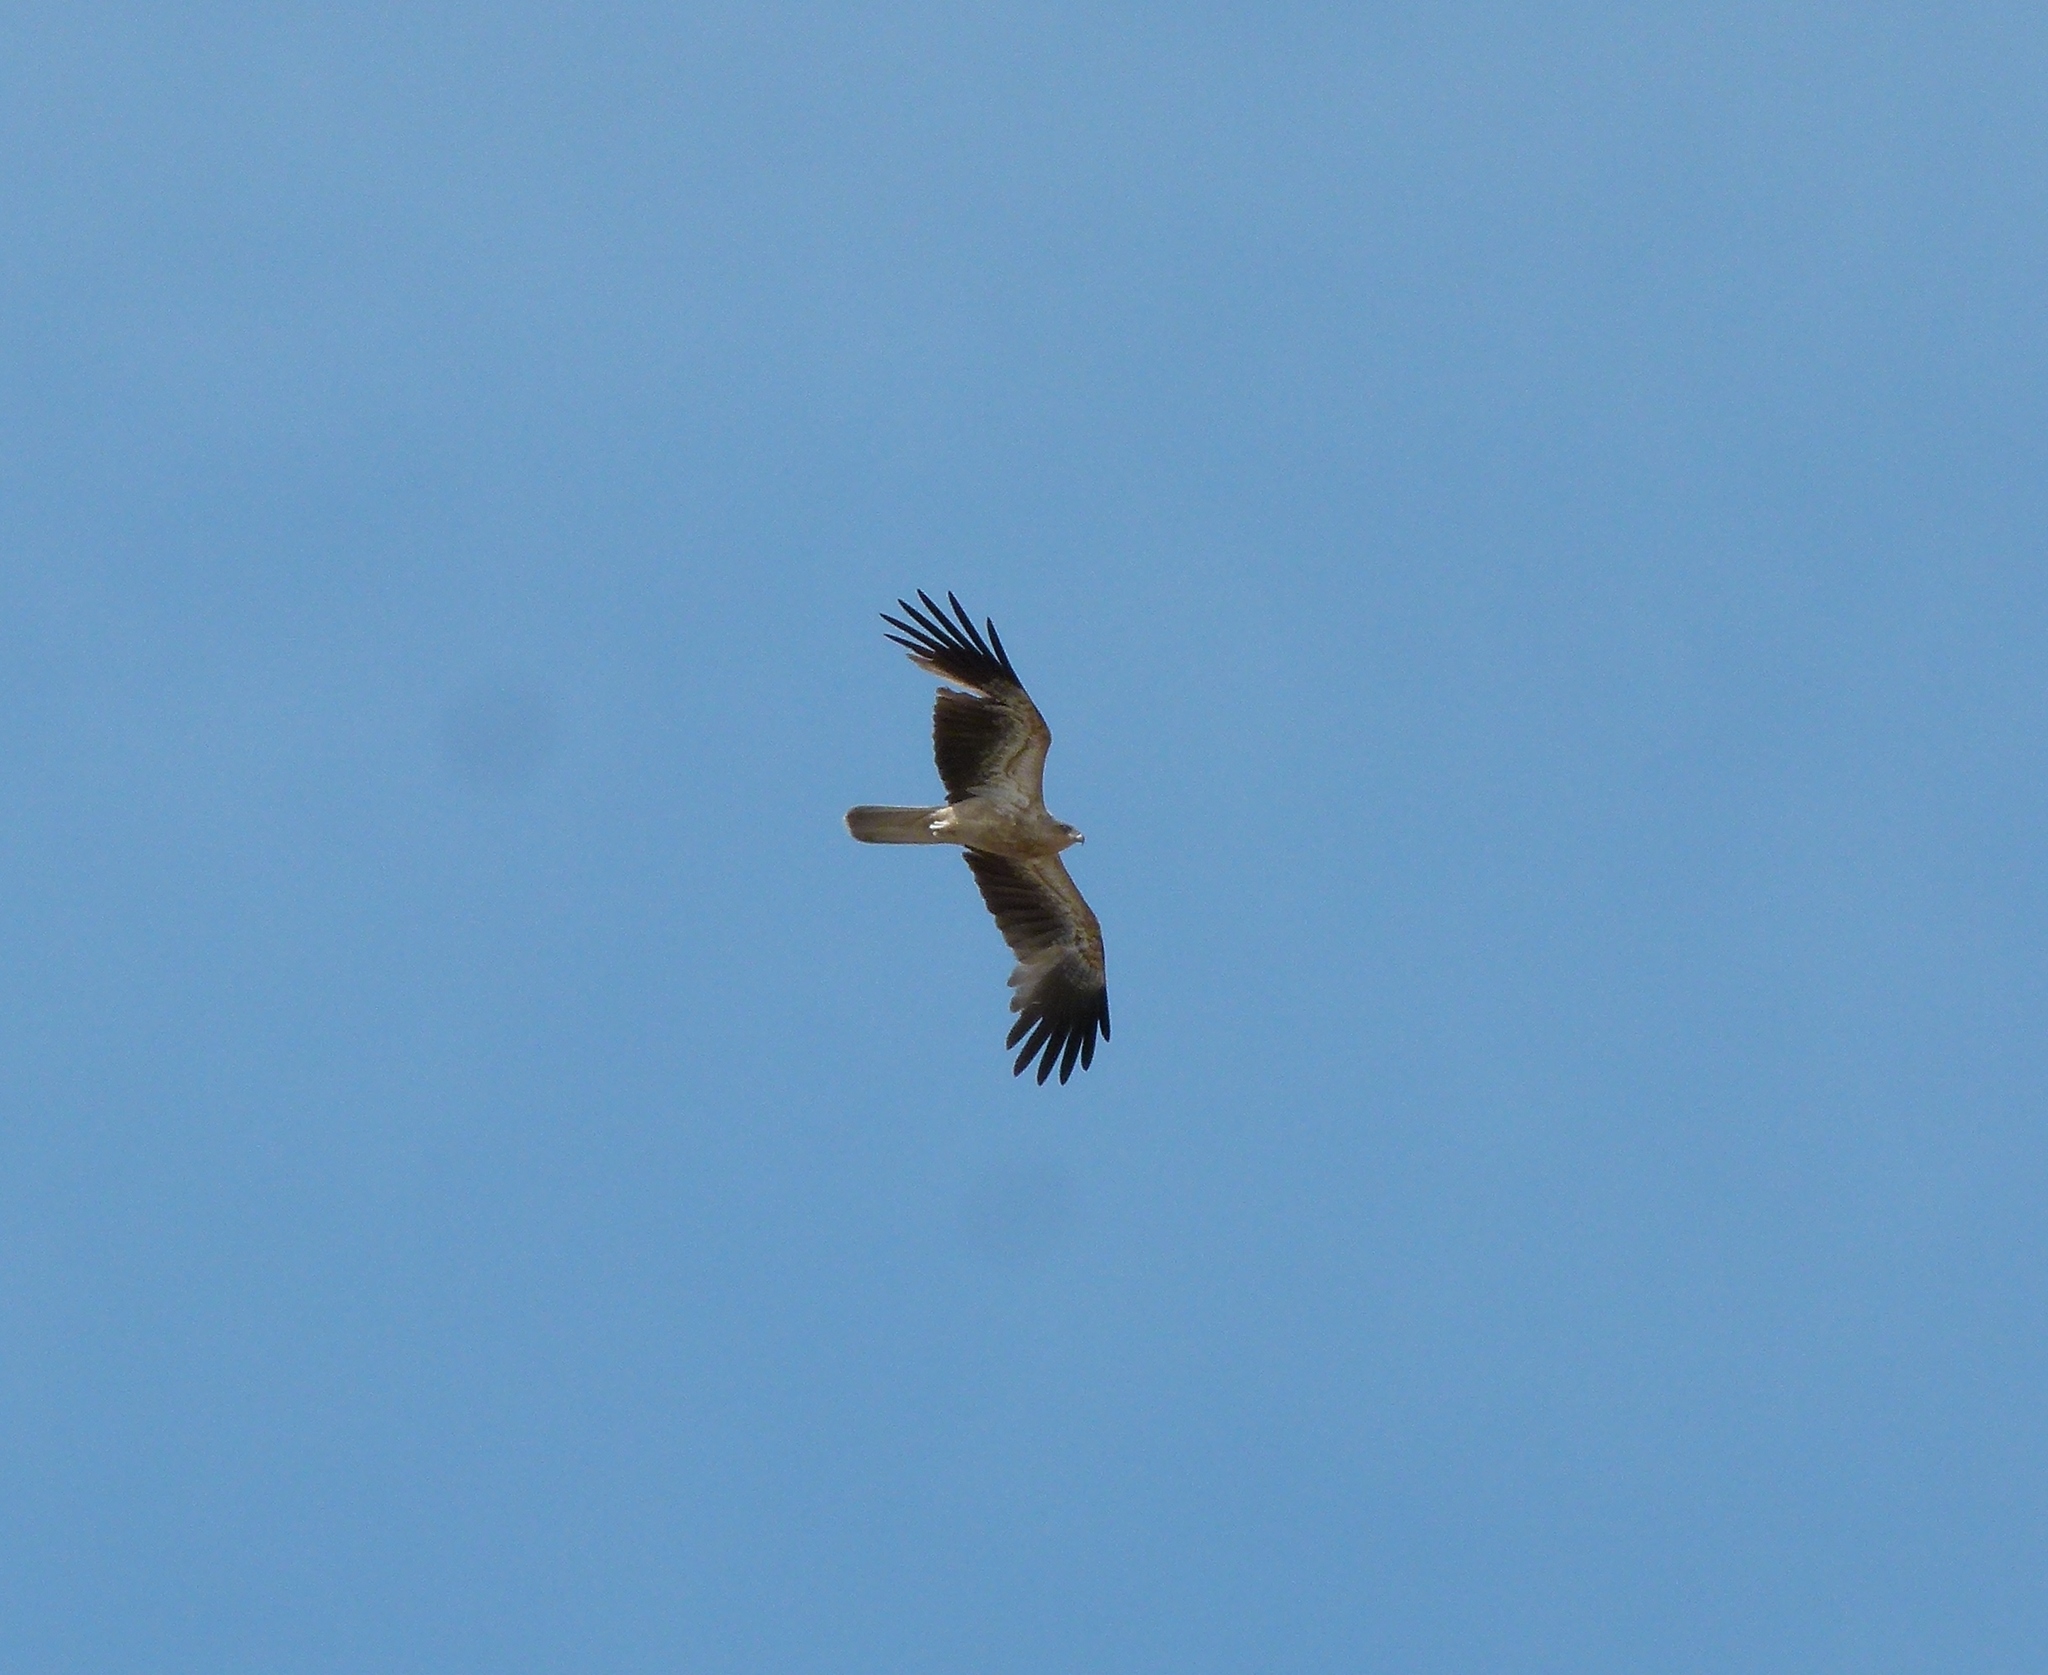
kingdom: Animalia
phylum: Chordata
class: Aves
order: Accipitriformes
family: Accipitridae
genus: Haliastur
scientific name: Haliastur sphenurus
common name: Whistling kite
